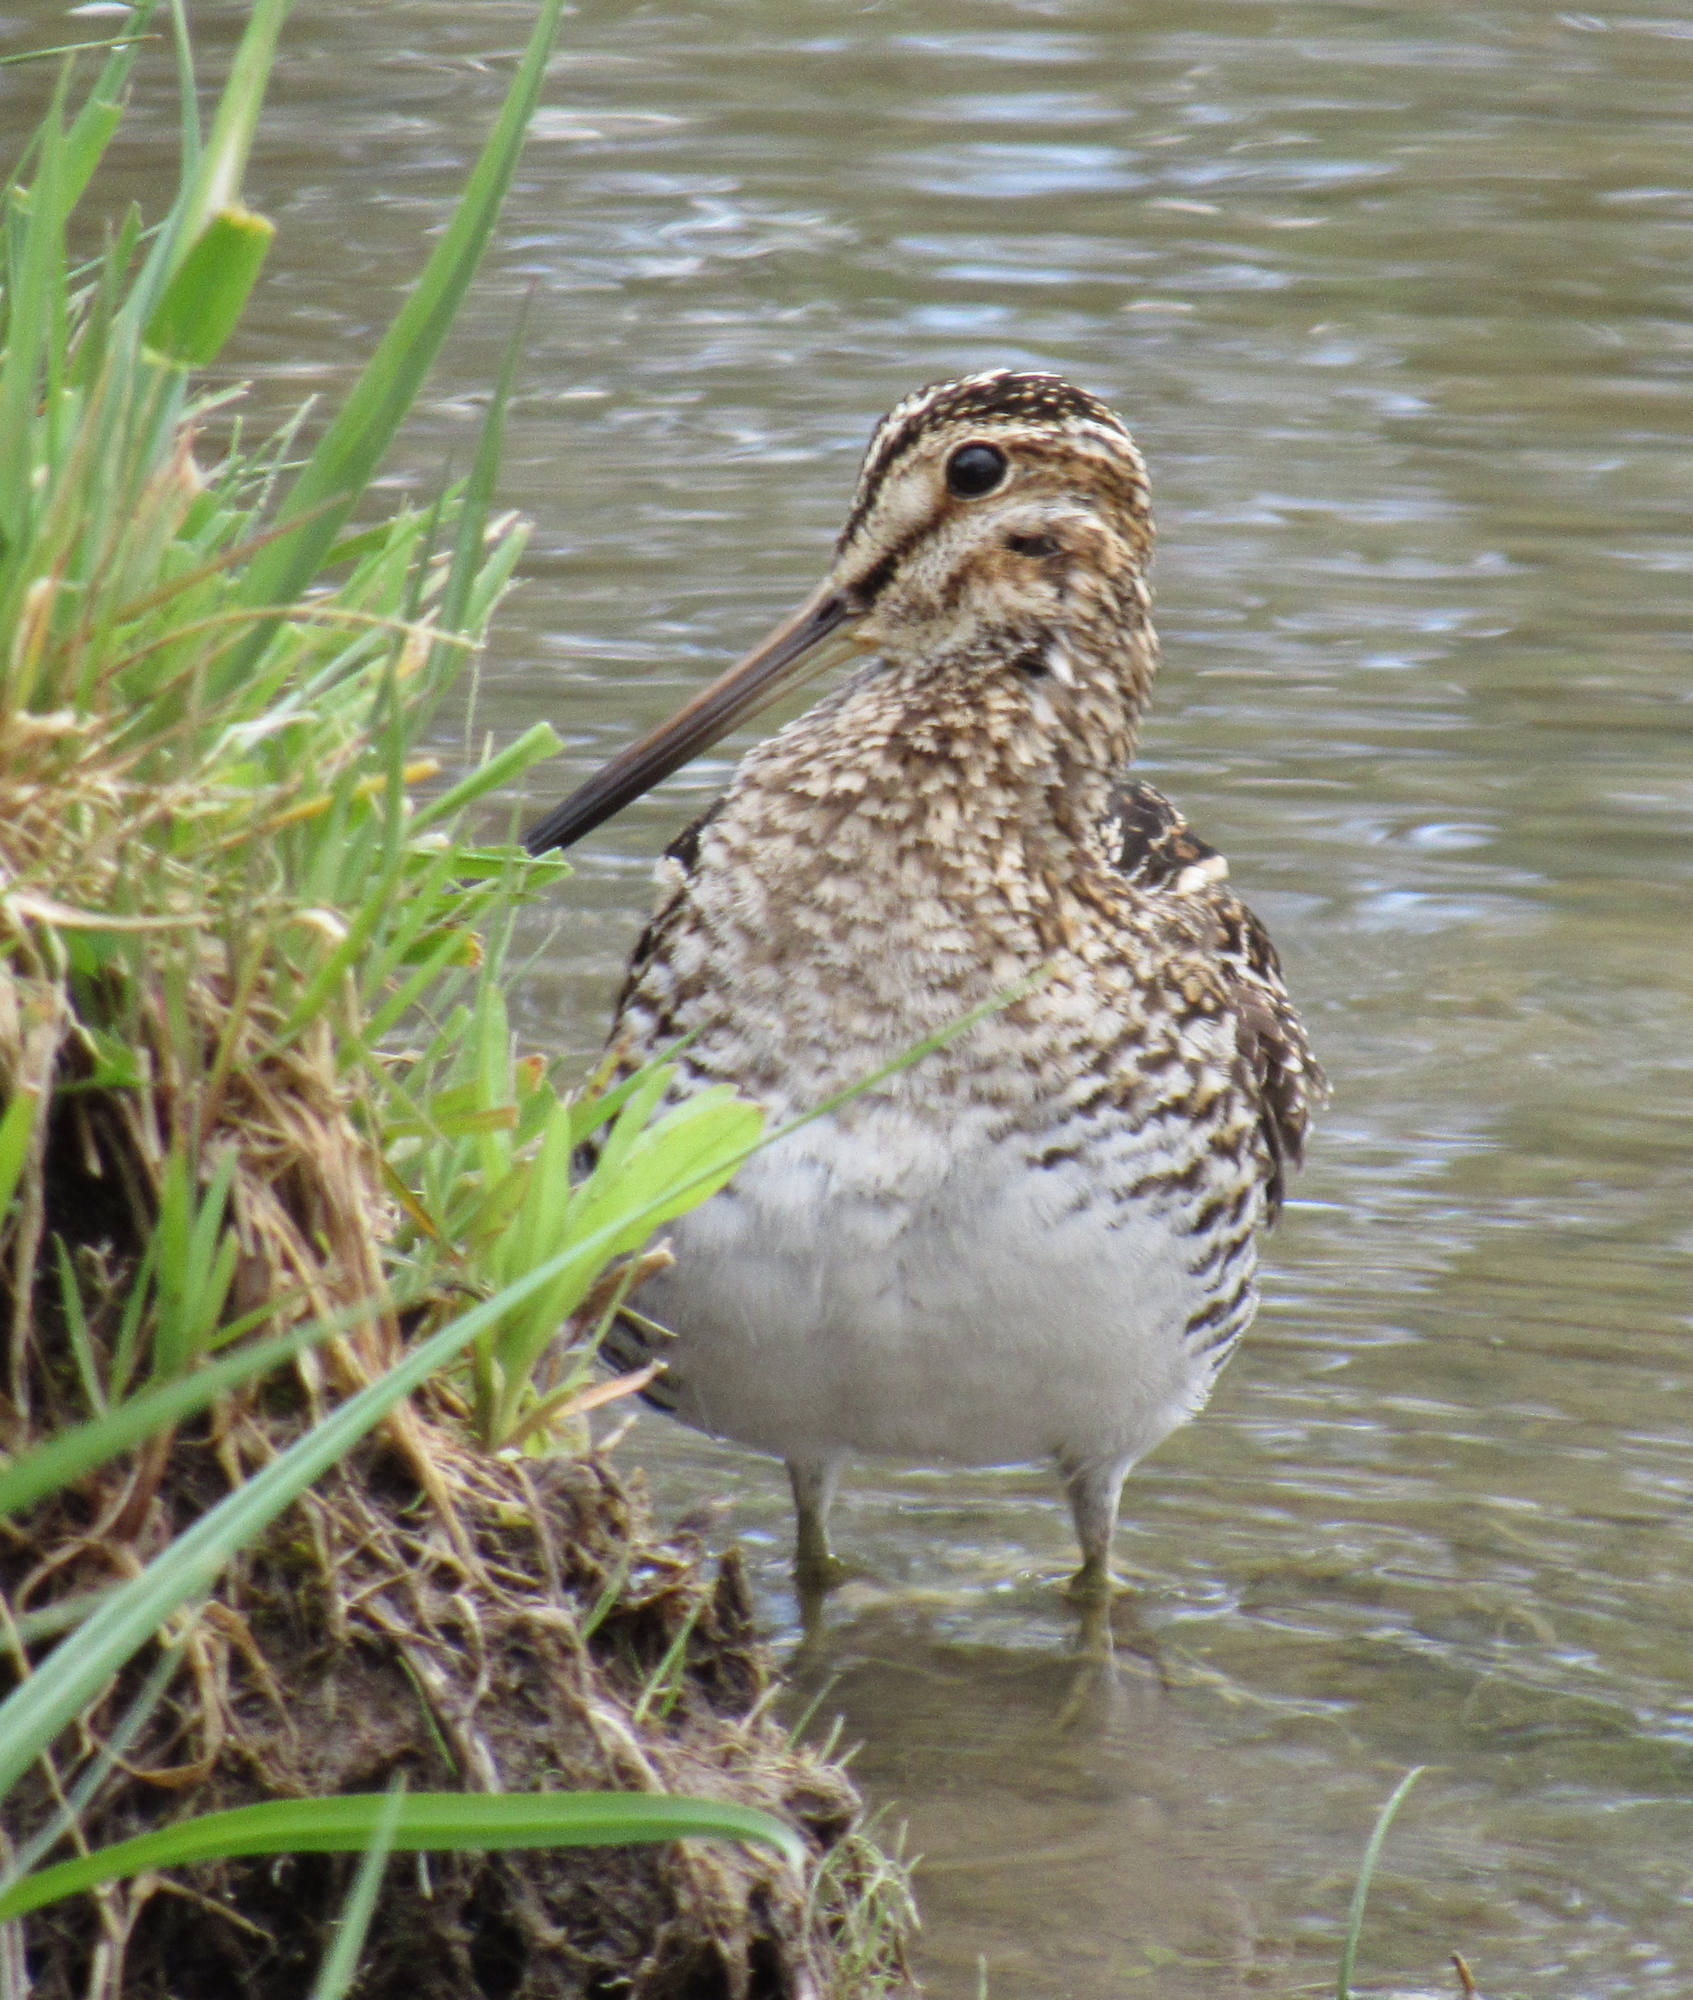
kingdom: Animalia
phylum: Chordata
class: Aves
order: Charadriiformes
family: Scolopacidae
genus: Gallinago
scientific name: Gallinago delicata
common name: Wilson's snipe
